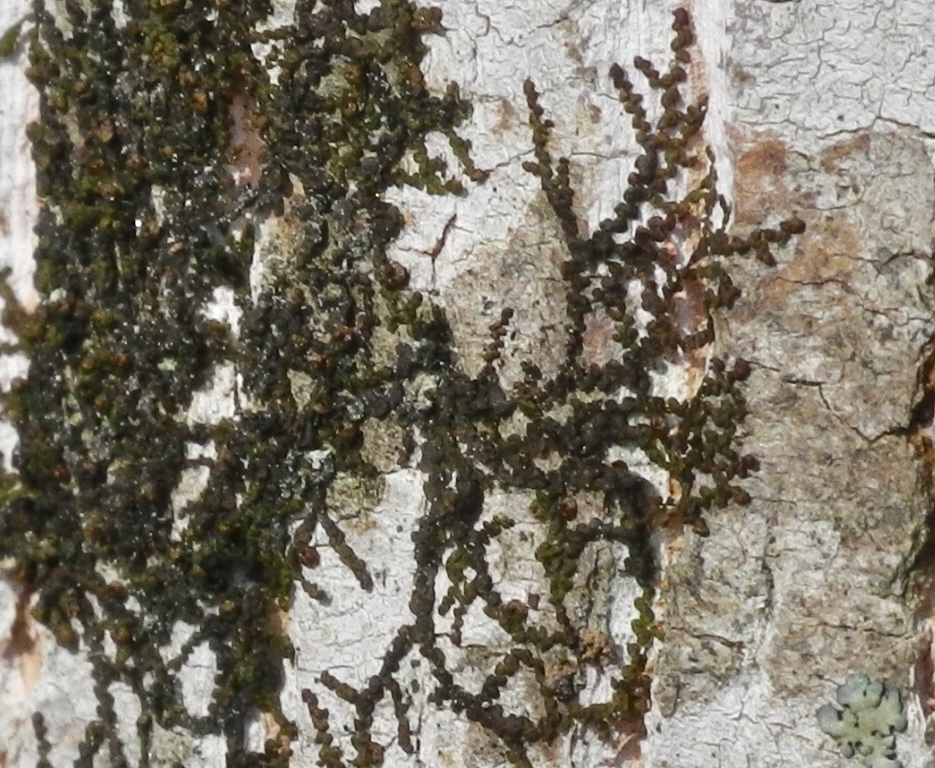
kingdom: Plantae
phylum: Marchantiophyta
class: Jungermanniopsida
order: Porellales
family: Frullaniaceae
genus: Frullania
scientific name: Frullania eboracensis
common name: New york scalewort
